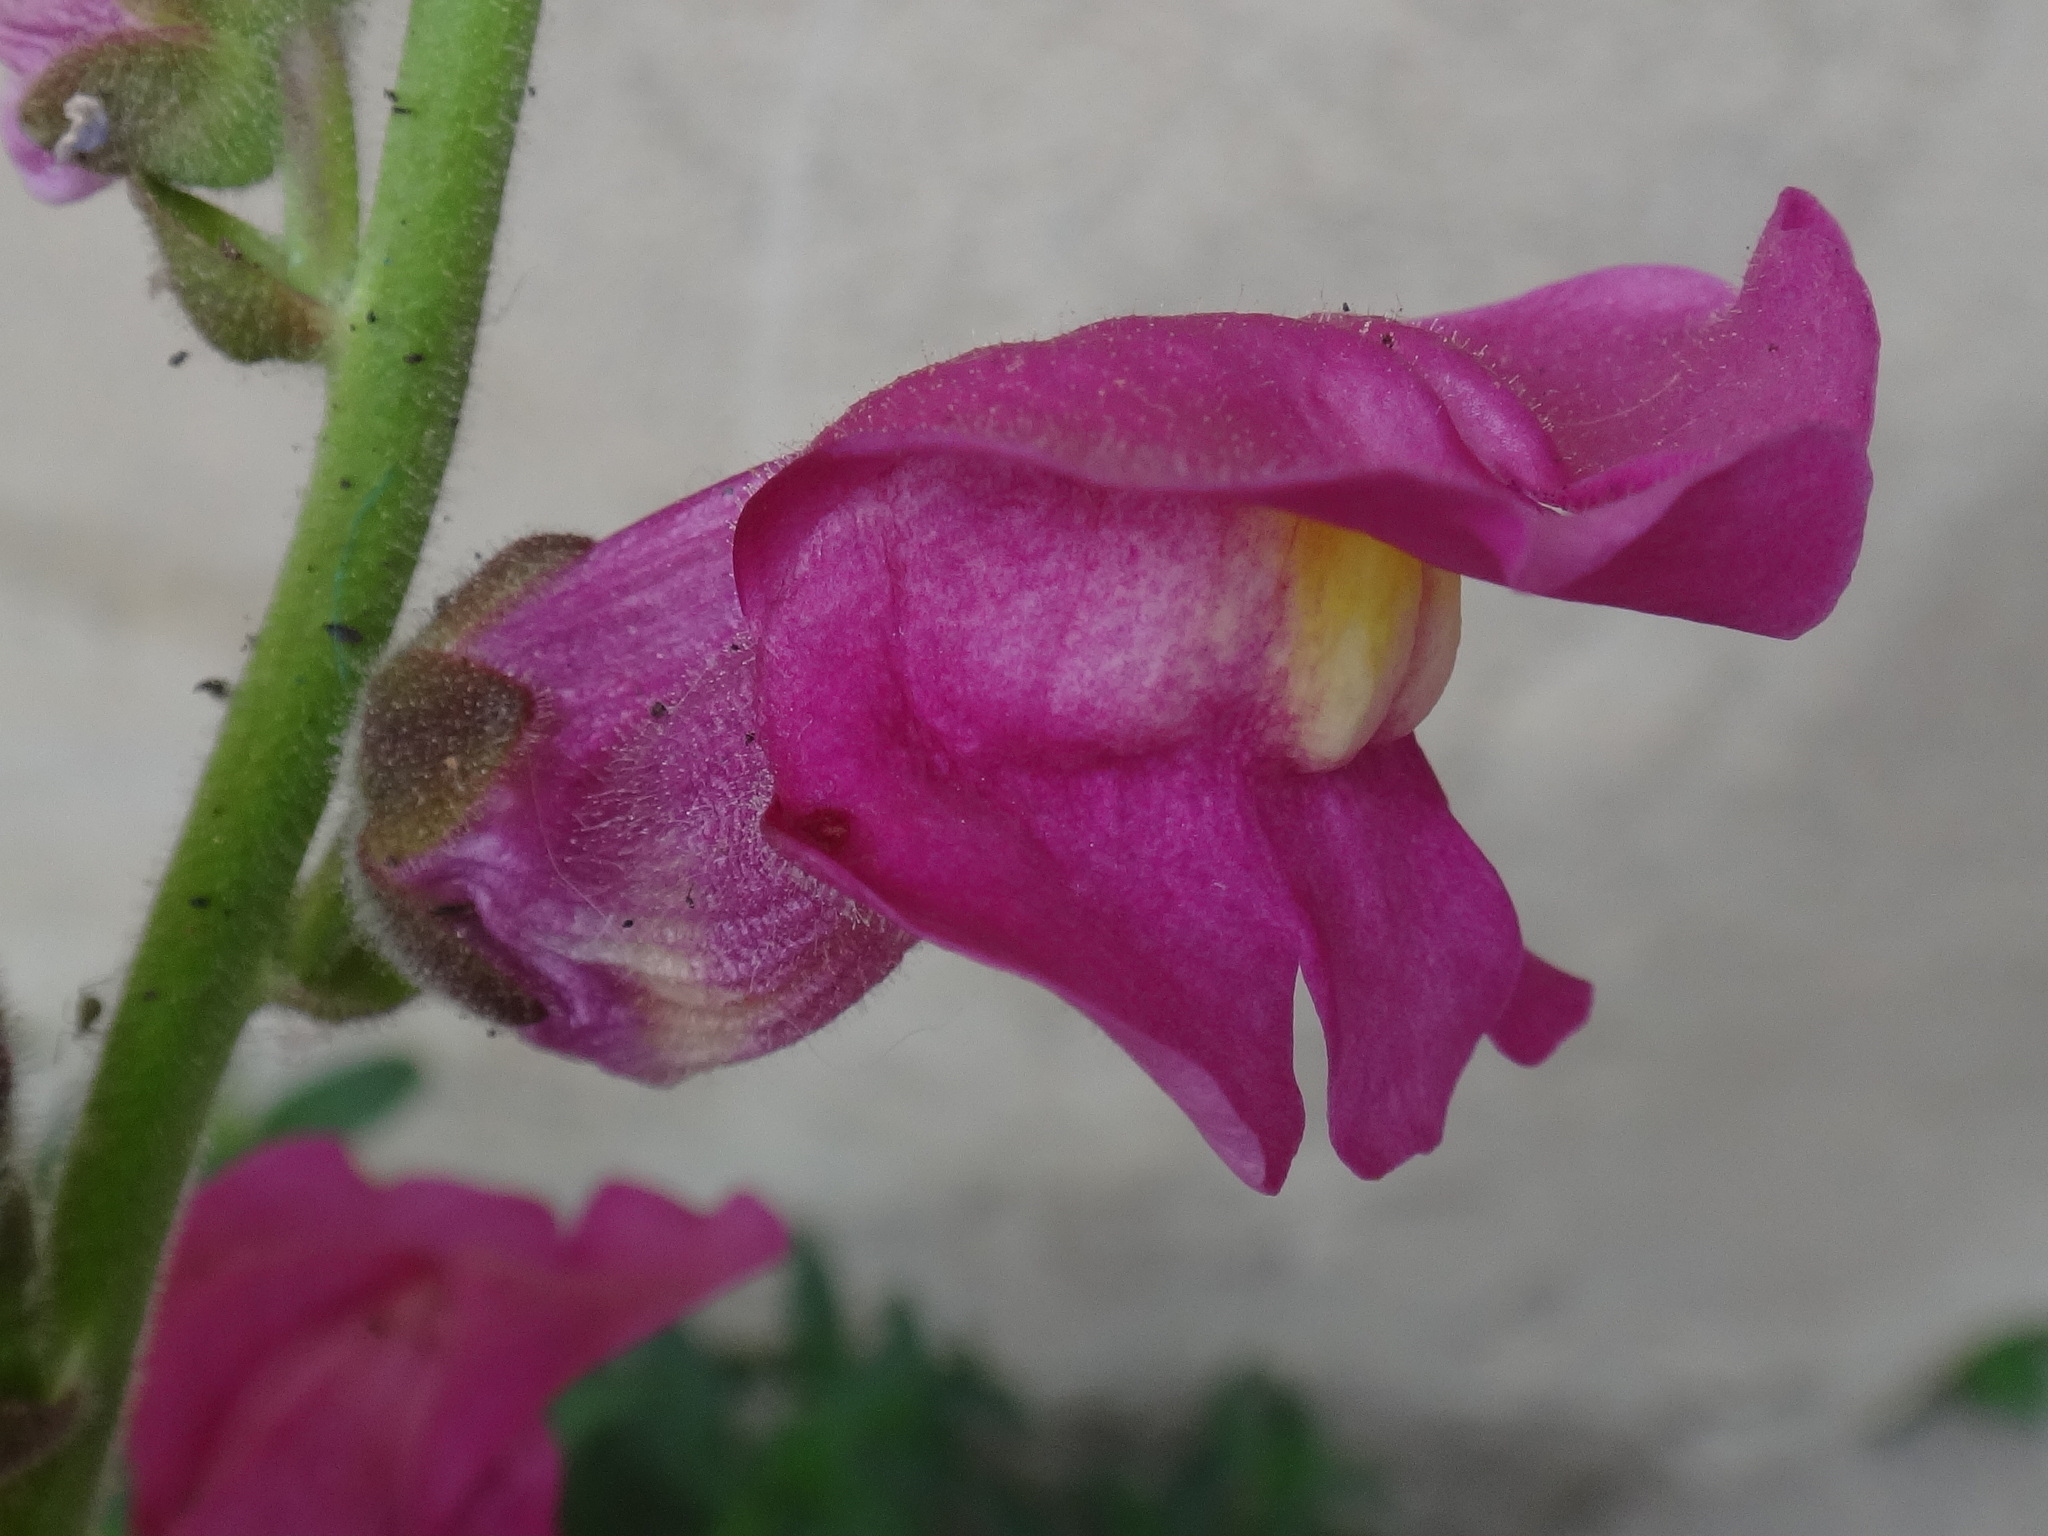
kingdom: Plantae
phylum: Tracheophyta
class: Magnoliopsida
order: Lamiales
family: Plantaginaceae
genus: Antirrhinum
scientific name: Antirrhinum majus
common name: Snapdragon
